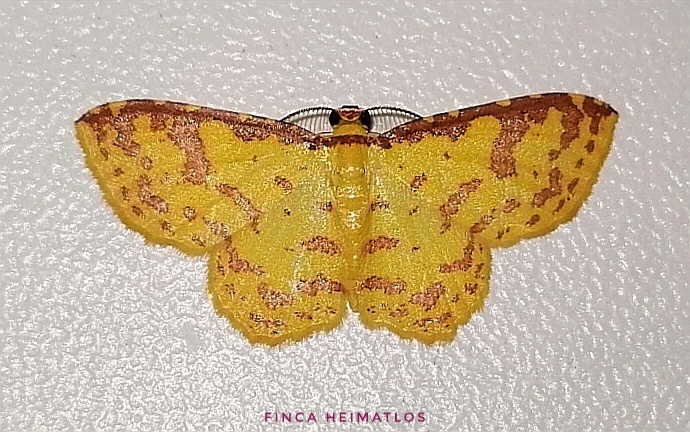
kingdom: Animalia
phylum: Arthropoda
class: Insecta
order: Lepidoptera
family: Geometridae
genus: Eois
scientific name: Eois russearia
